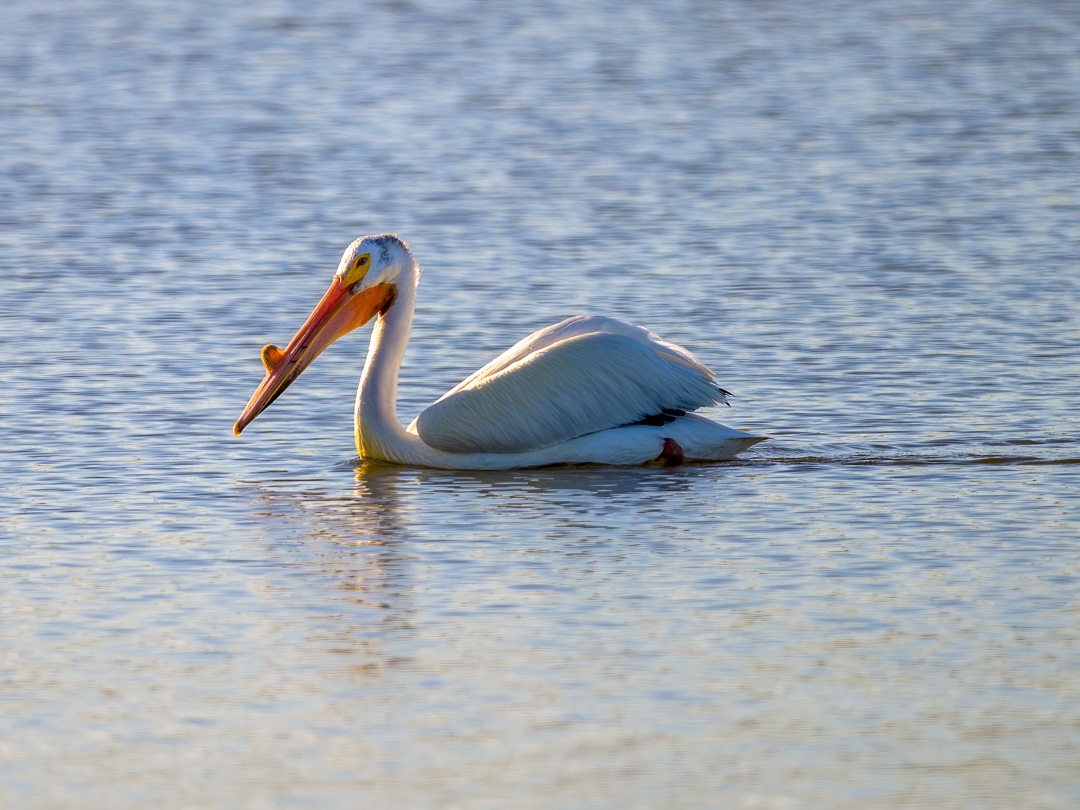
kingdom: Animalia
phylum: Chordata
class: Aves
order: Pelecaniformes
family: Pelecanidae
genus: Pelecanus
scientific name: Pelecanus erythrorhynchos
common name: American white pelican
